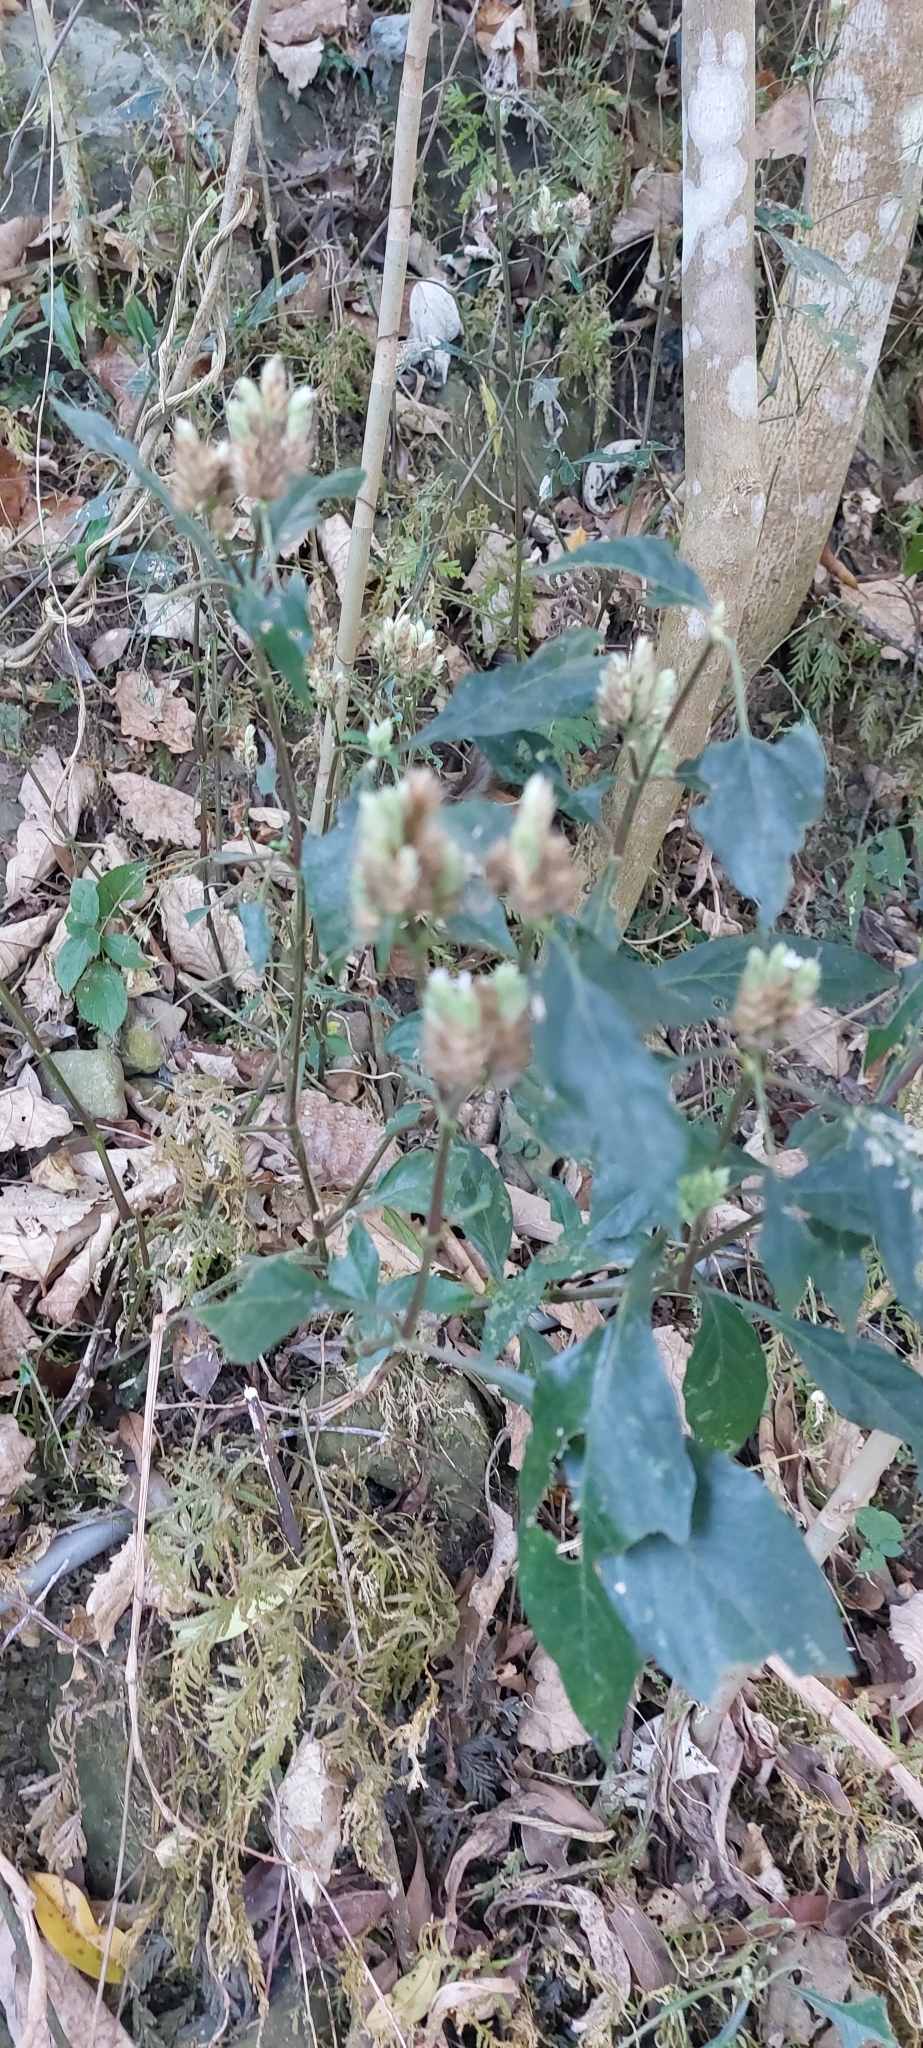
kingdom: Plantae
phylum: Tracheophyta
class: Magnoliopsida
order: Lamiales
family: Acanthaceae
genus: Lepidagathis
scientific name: Lepidagathis formosensis
